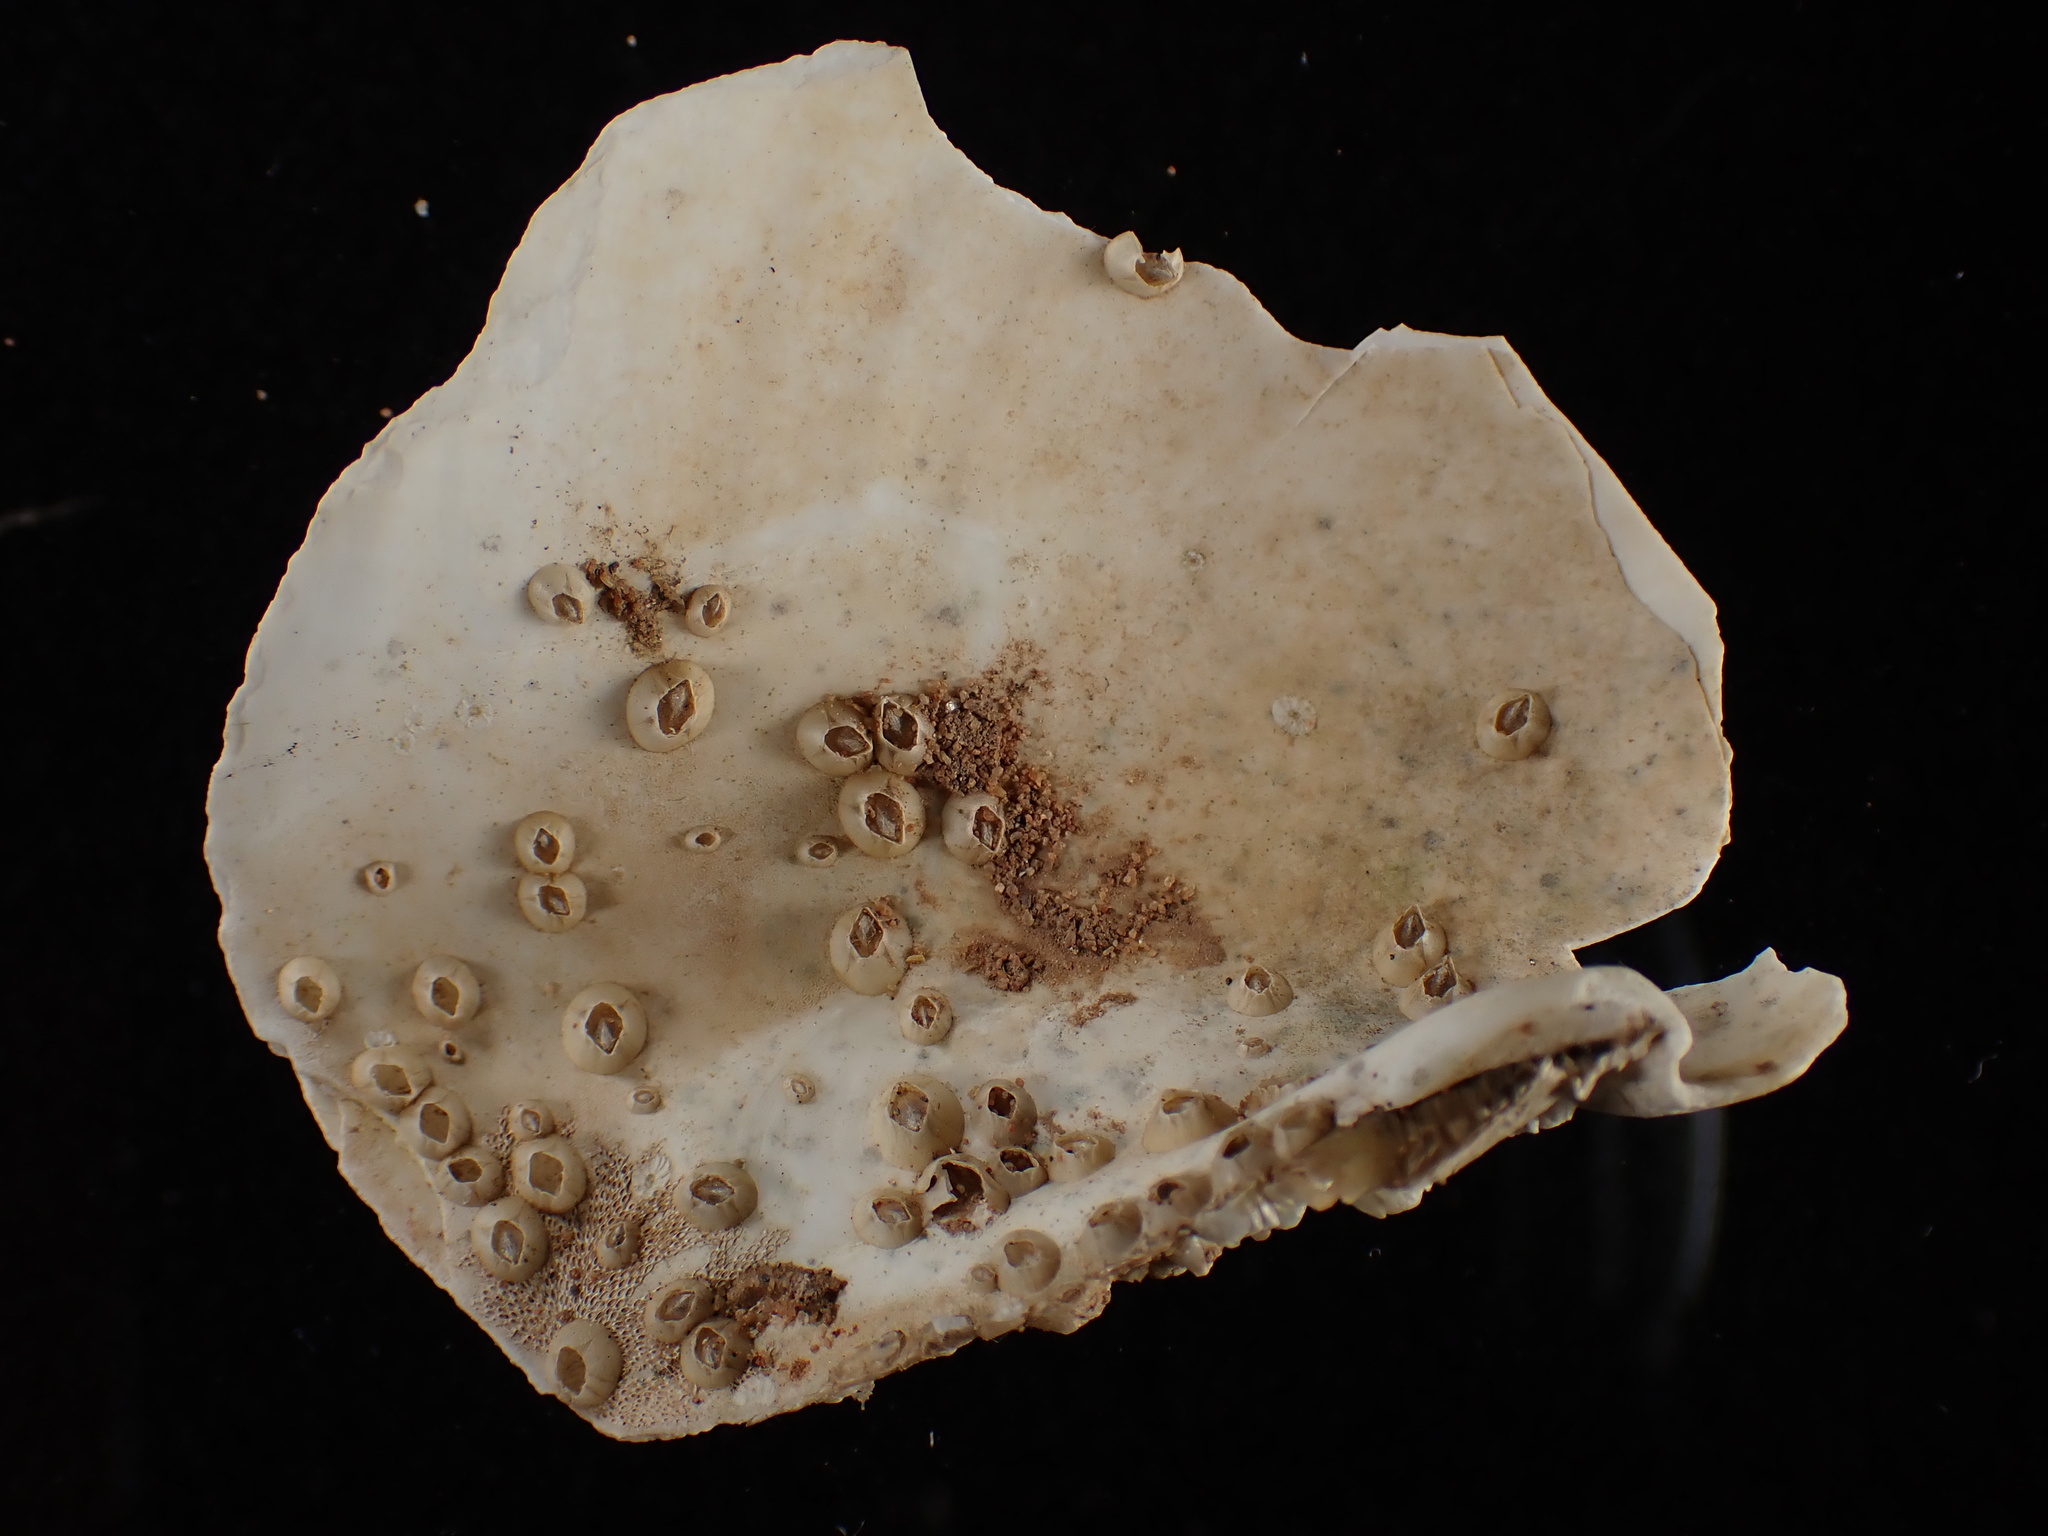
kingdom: Animalia
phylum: Mollusca
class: Bivalvia
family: Thraciidae
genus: Thracia
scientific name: Thracia conradi
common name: Conrad thracia
